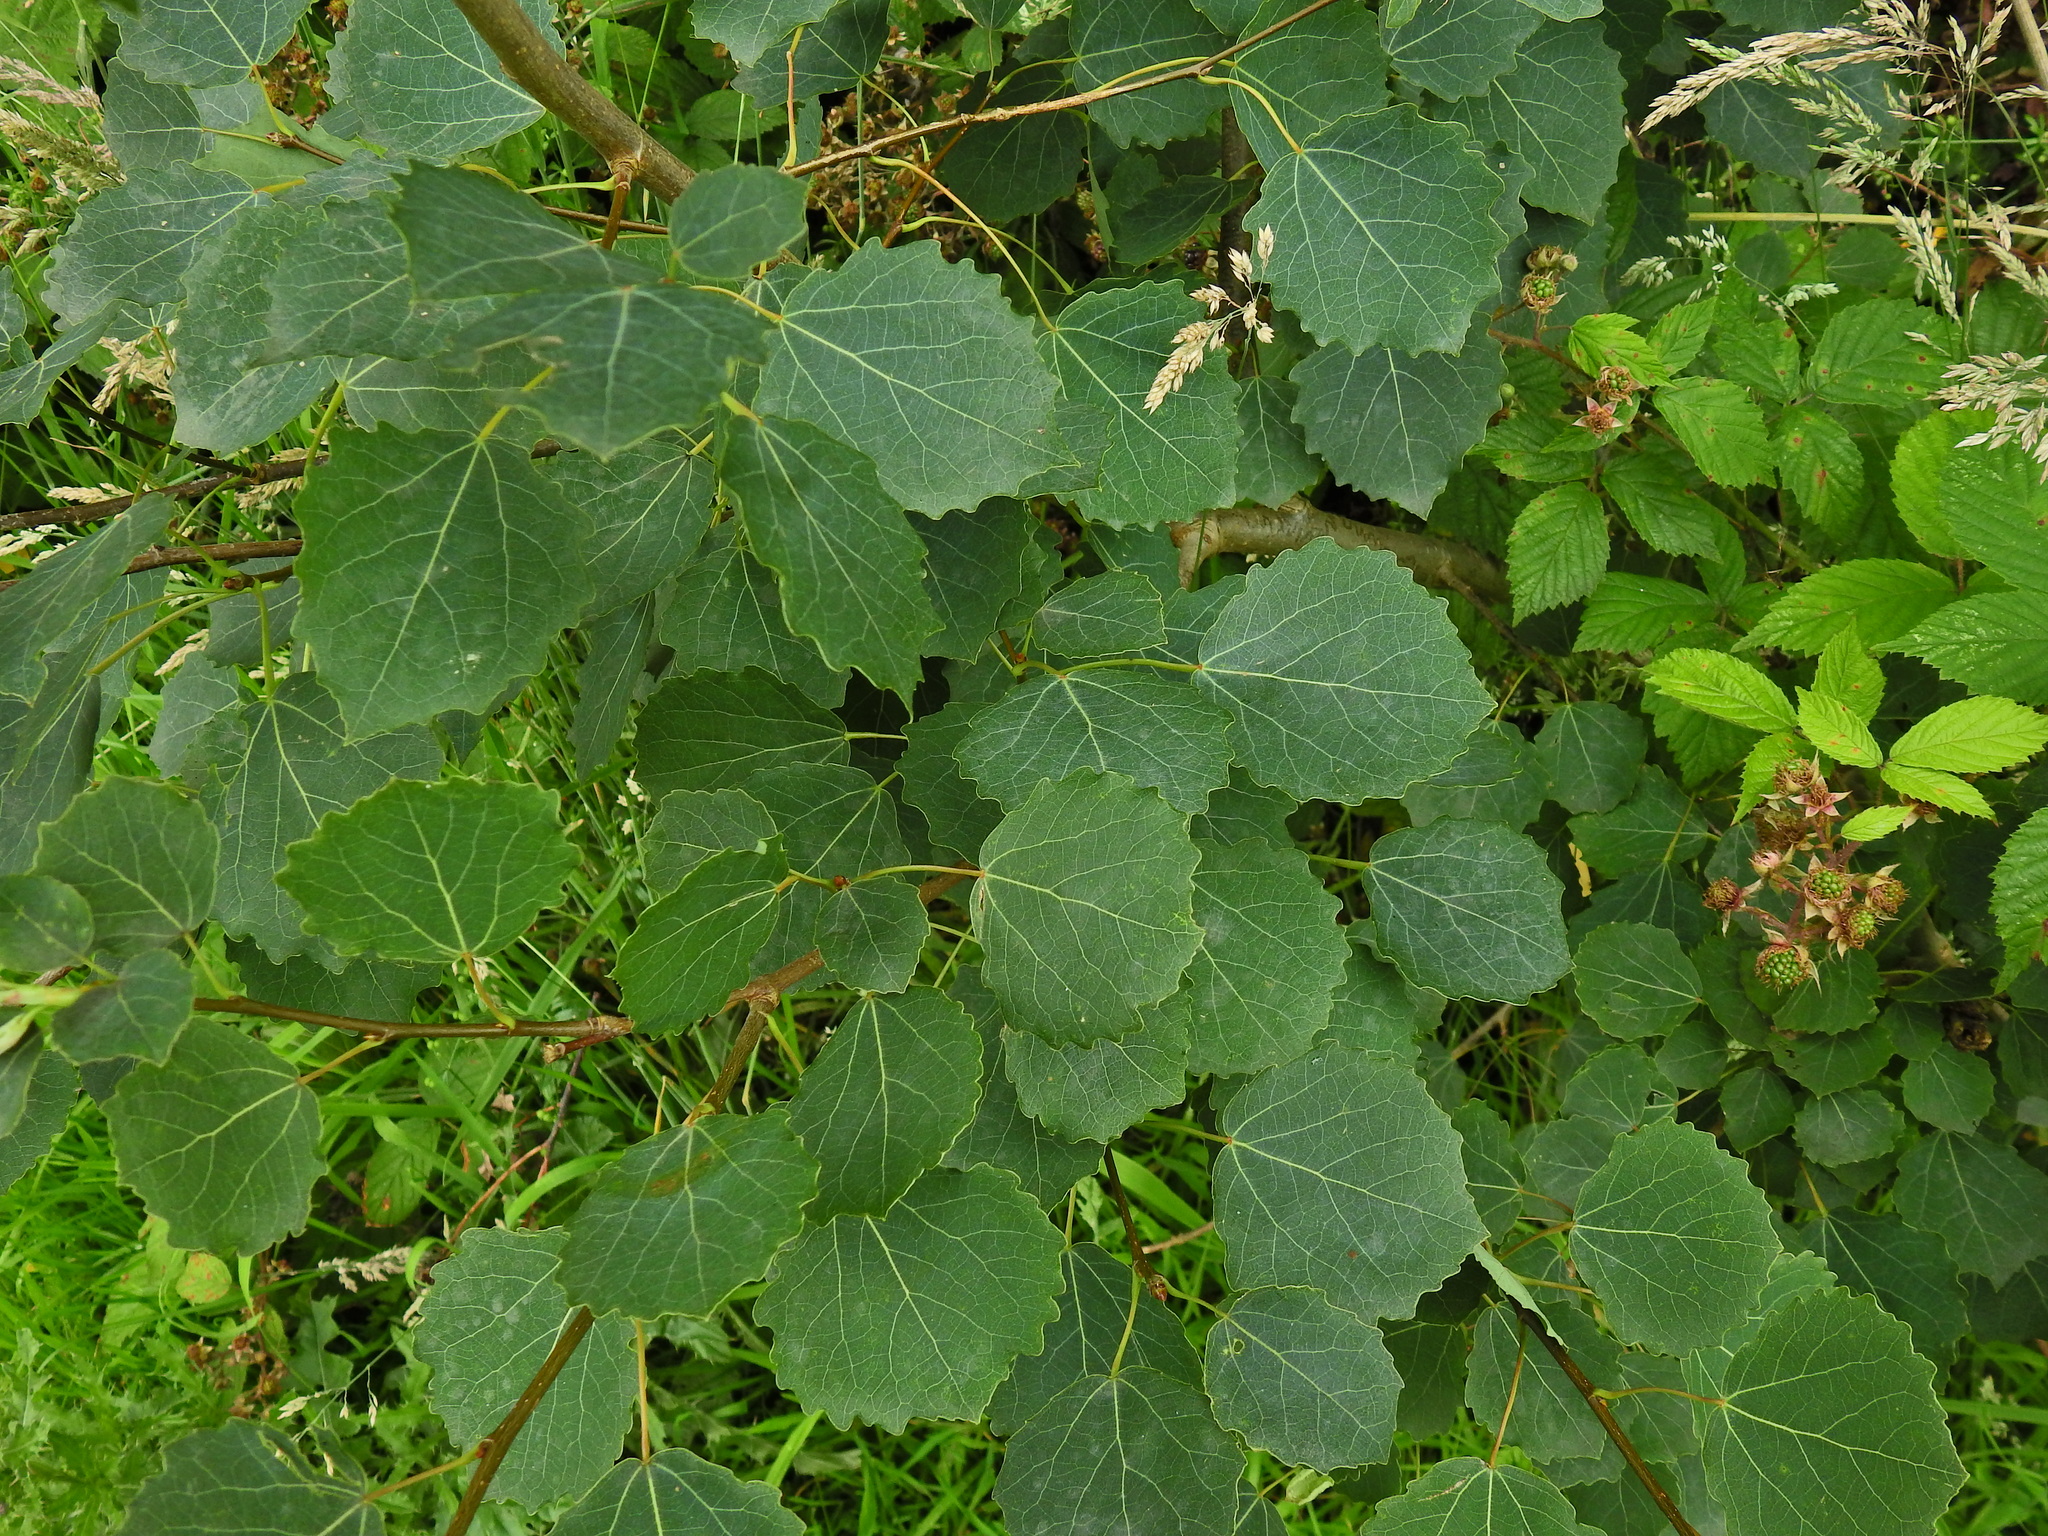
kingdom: Plantae
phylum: Tracheophyta
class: Magnoliopsida
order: Malpighiales
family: Salicaceae
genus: Populus
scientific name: Populus tremula
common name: European aspen
